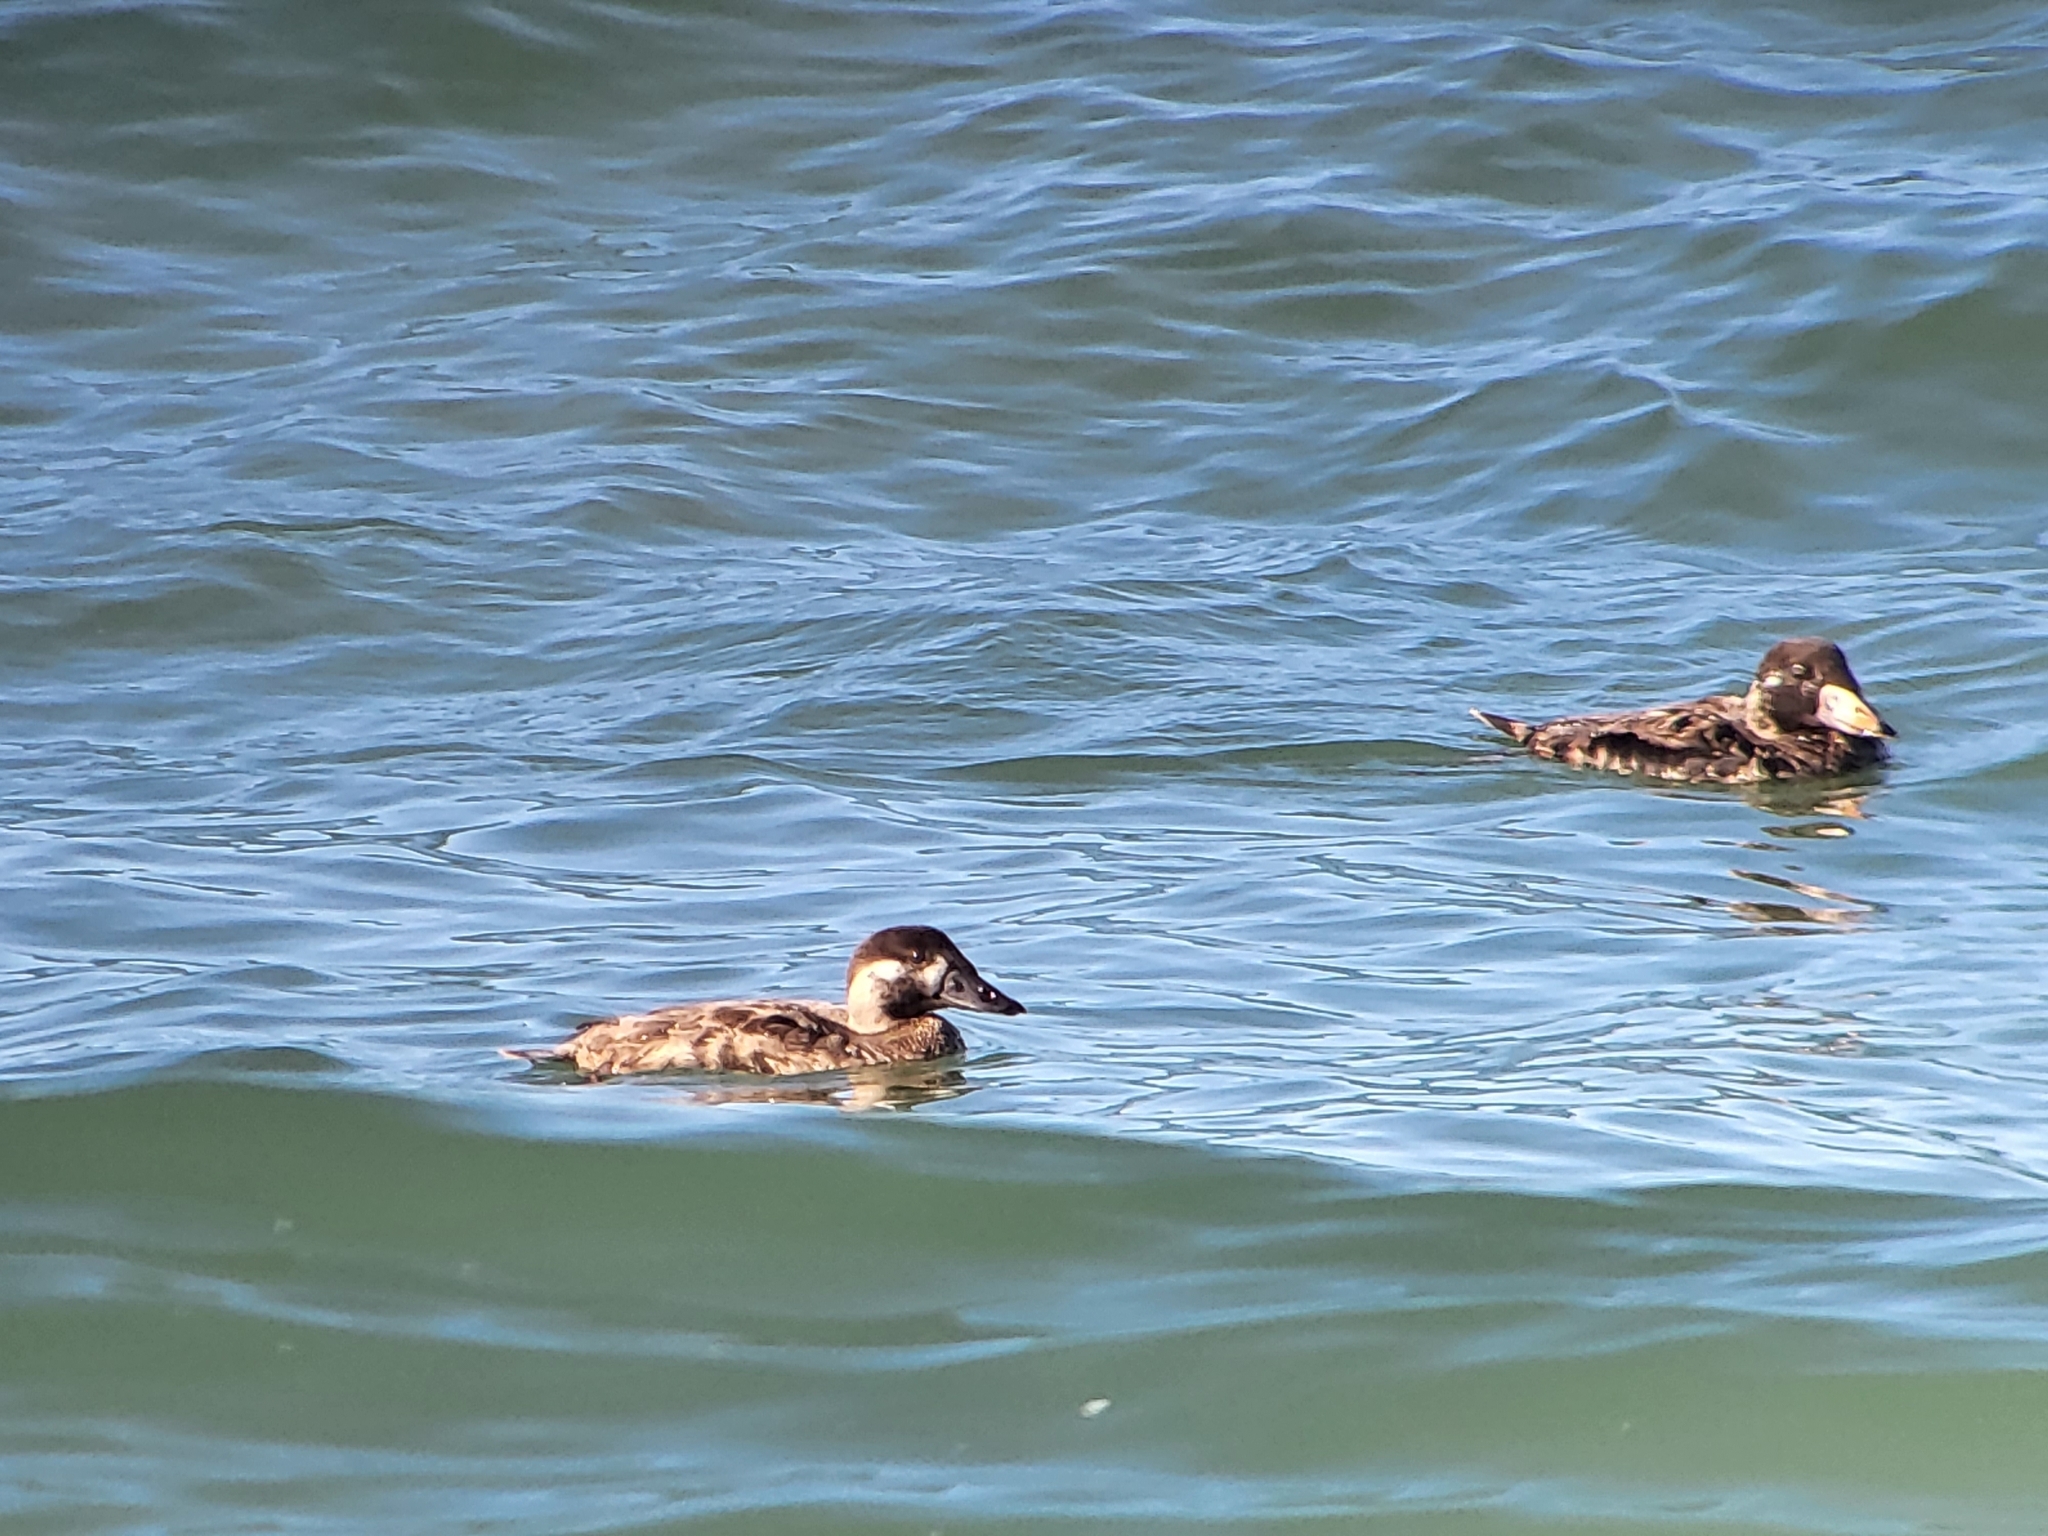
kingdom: Animalia
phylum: Chordata
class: Aves
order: Anseriformes
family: Anatidae
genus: Melanitta
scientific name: Melanitta perspicillata
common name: Surf scoter
